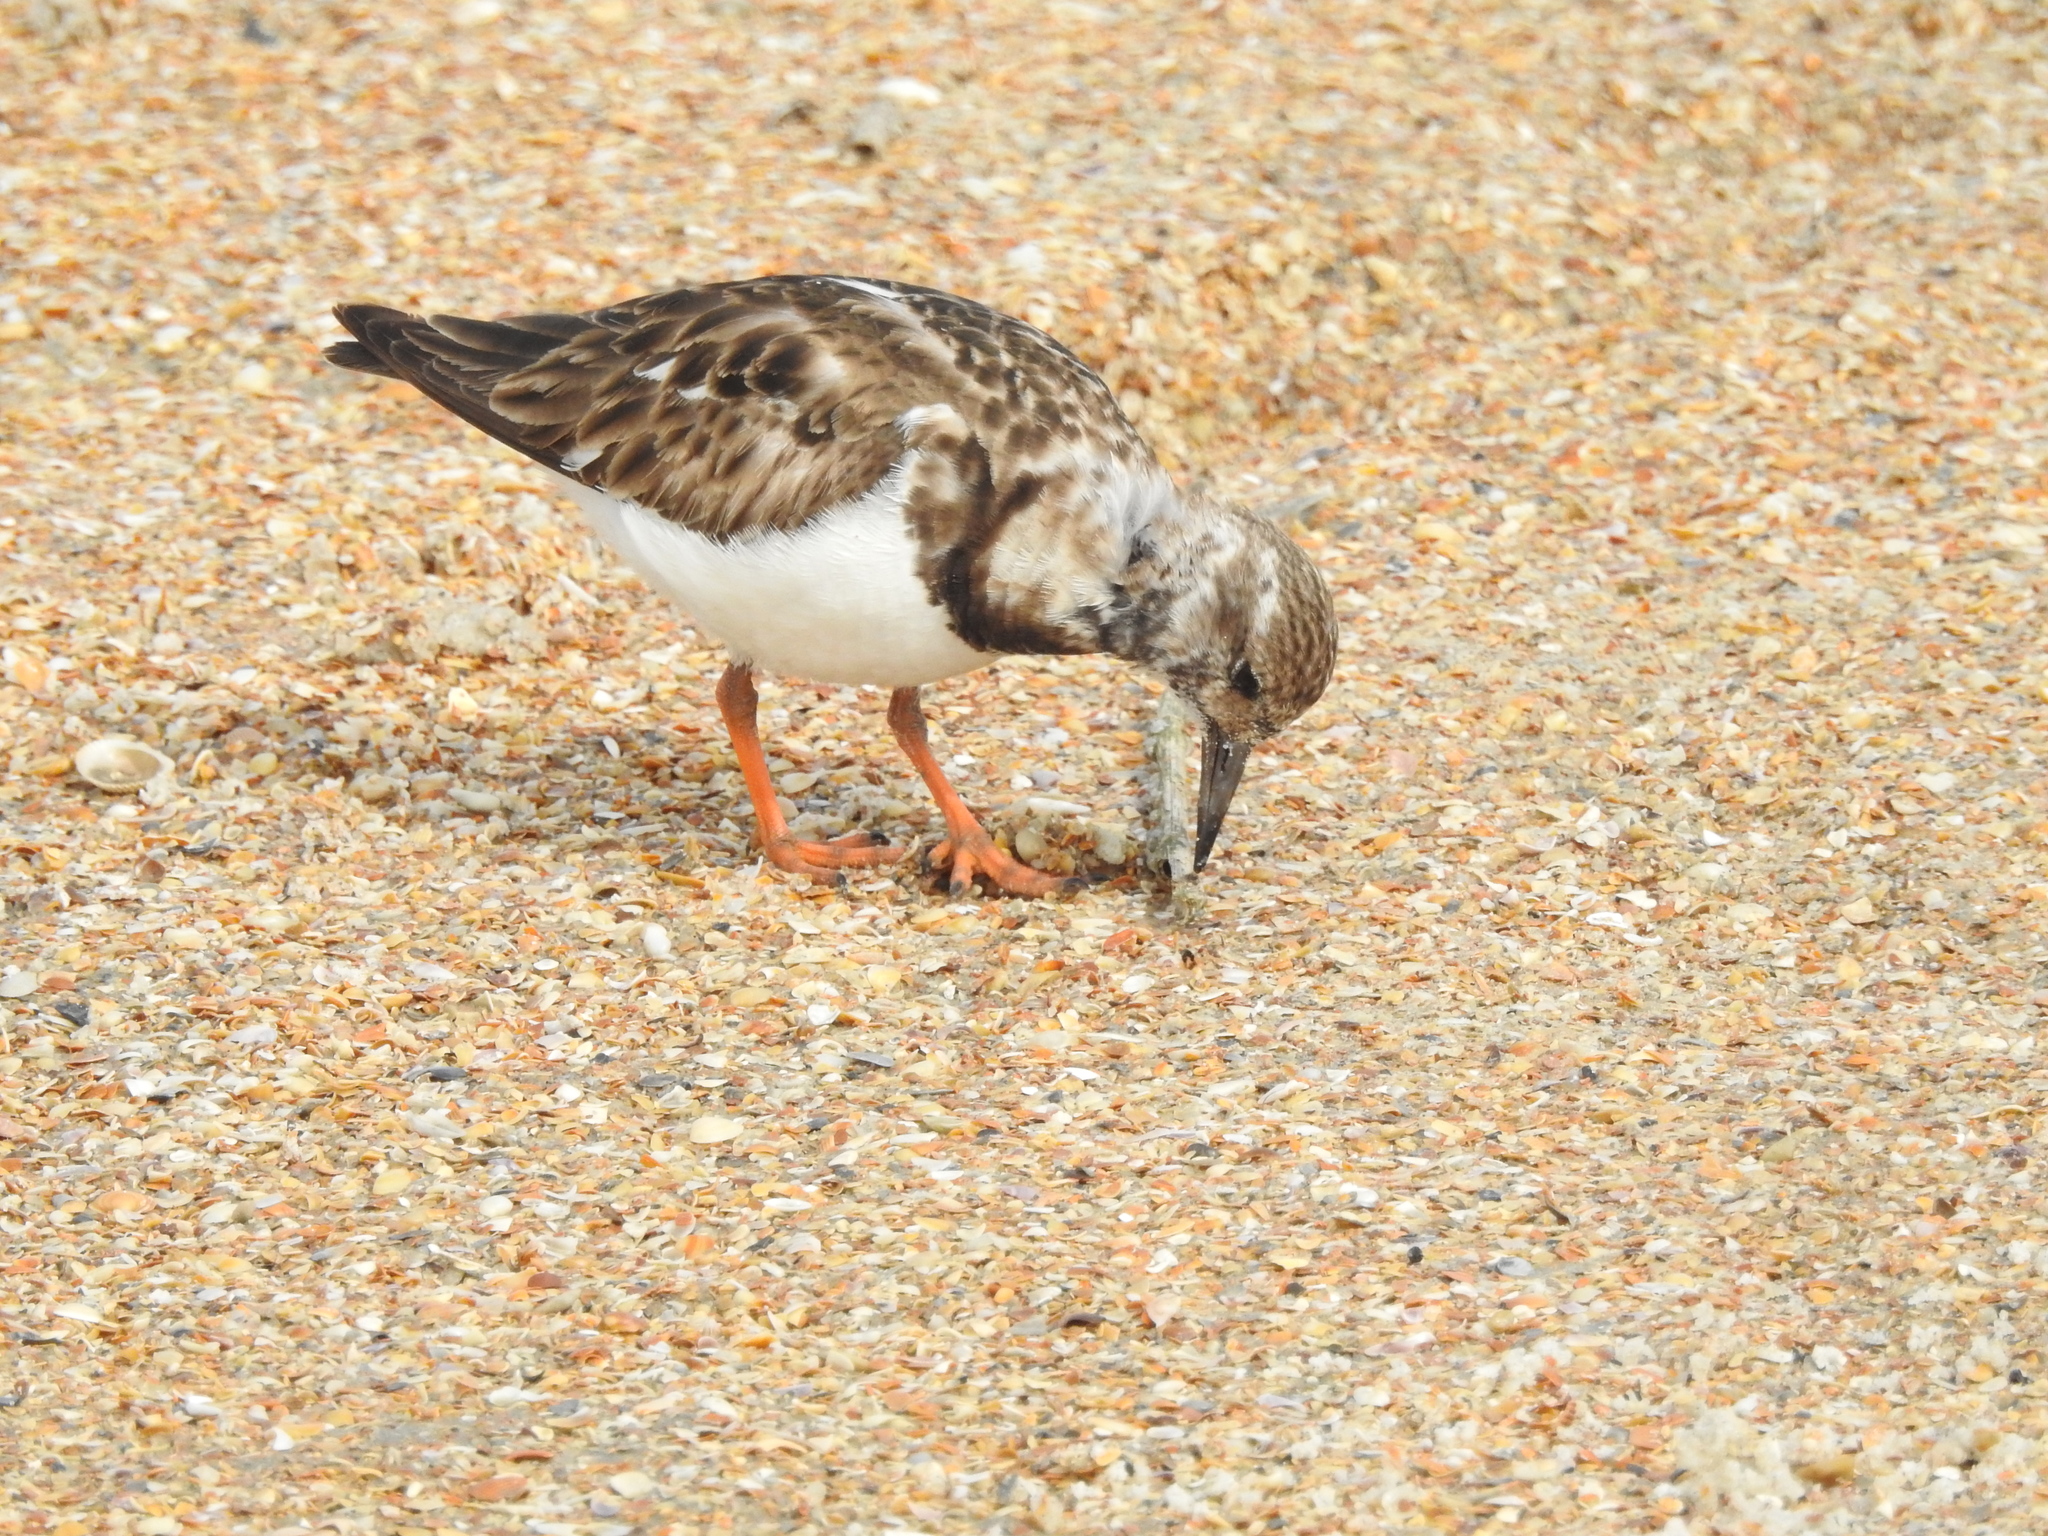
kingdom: Animalia
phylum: Chordata
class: Aves
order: Charadriiformes
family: Scolopacidae
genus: Arenaria
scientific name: Arenaria interpres
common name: Ruddy turnstone
